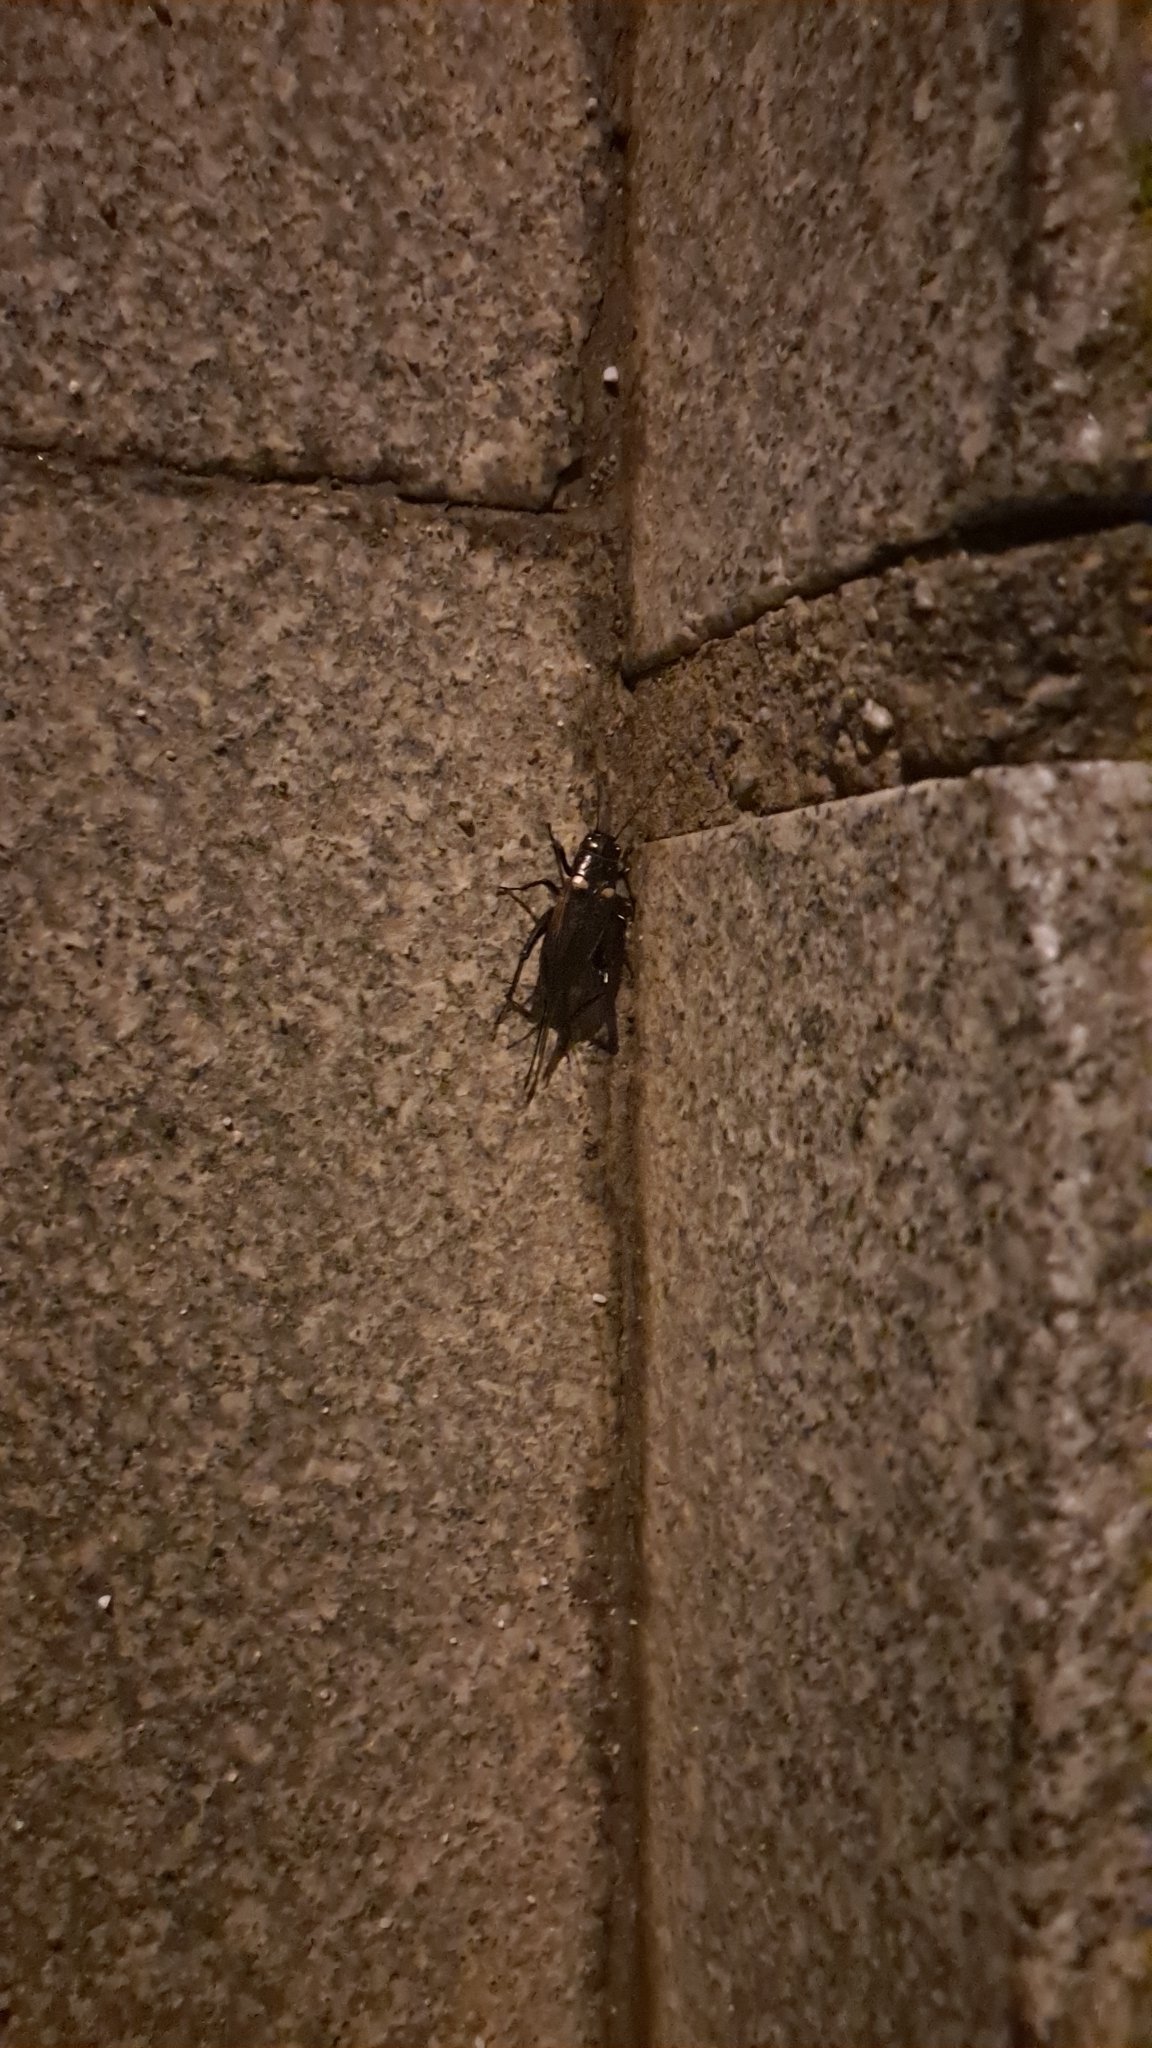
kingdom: Animalia
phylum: Arthropoda
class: Insecta
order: Orthoptera
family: Gryllidae
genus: Gryllus
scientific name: Gryllus bimaculatus
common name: Two-spotted cricket
